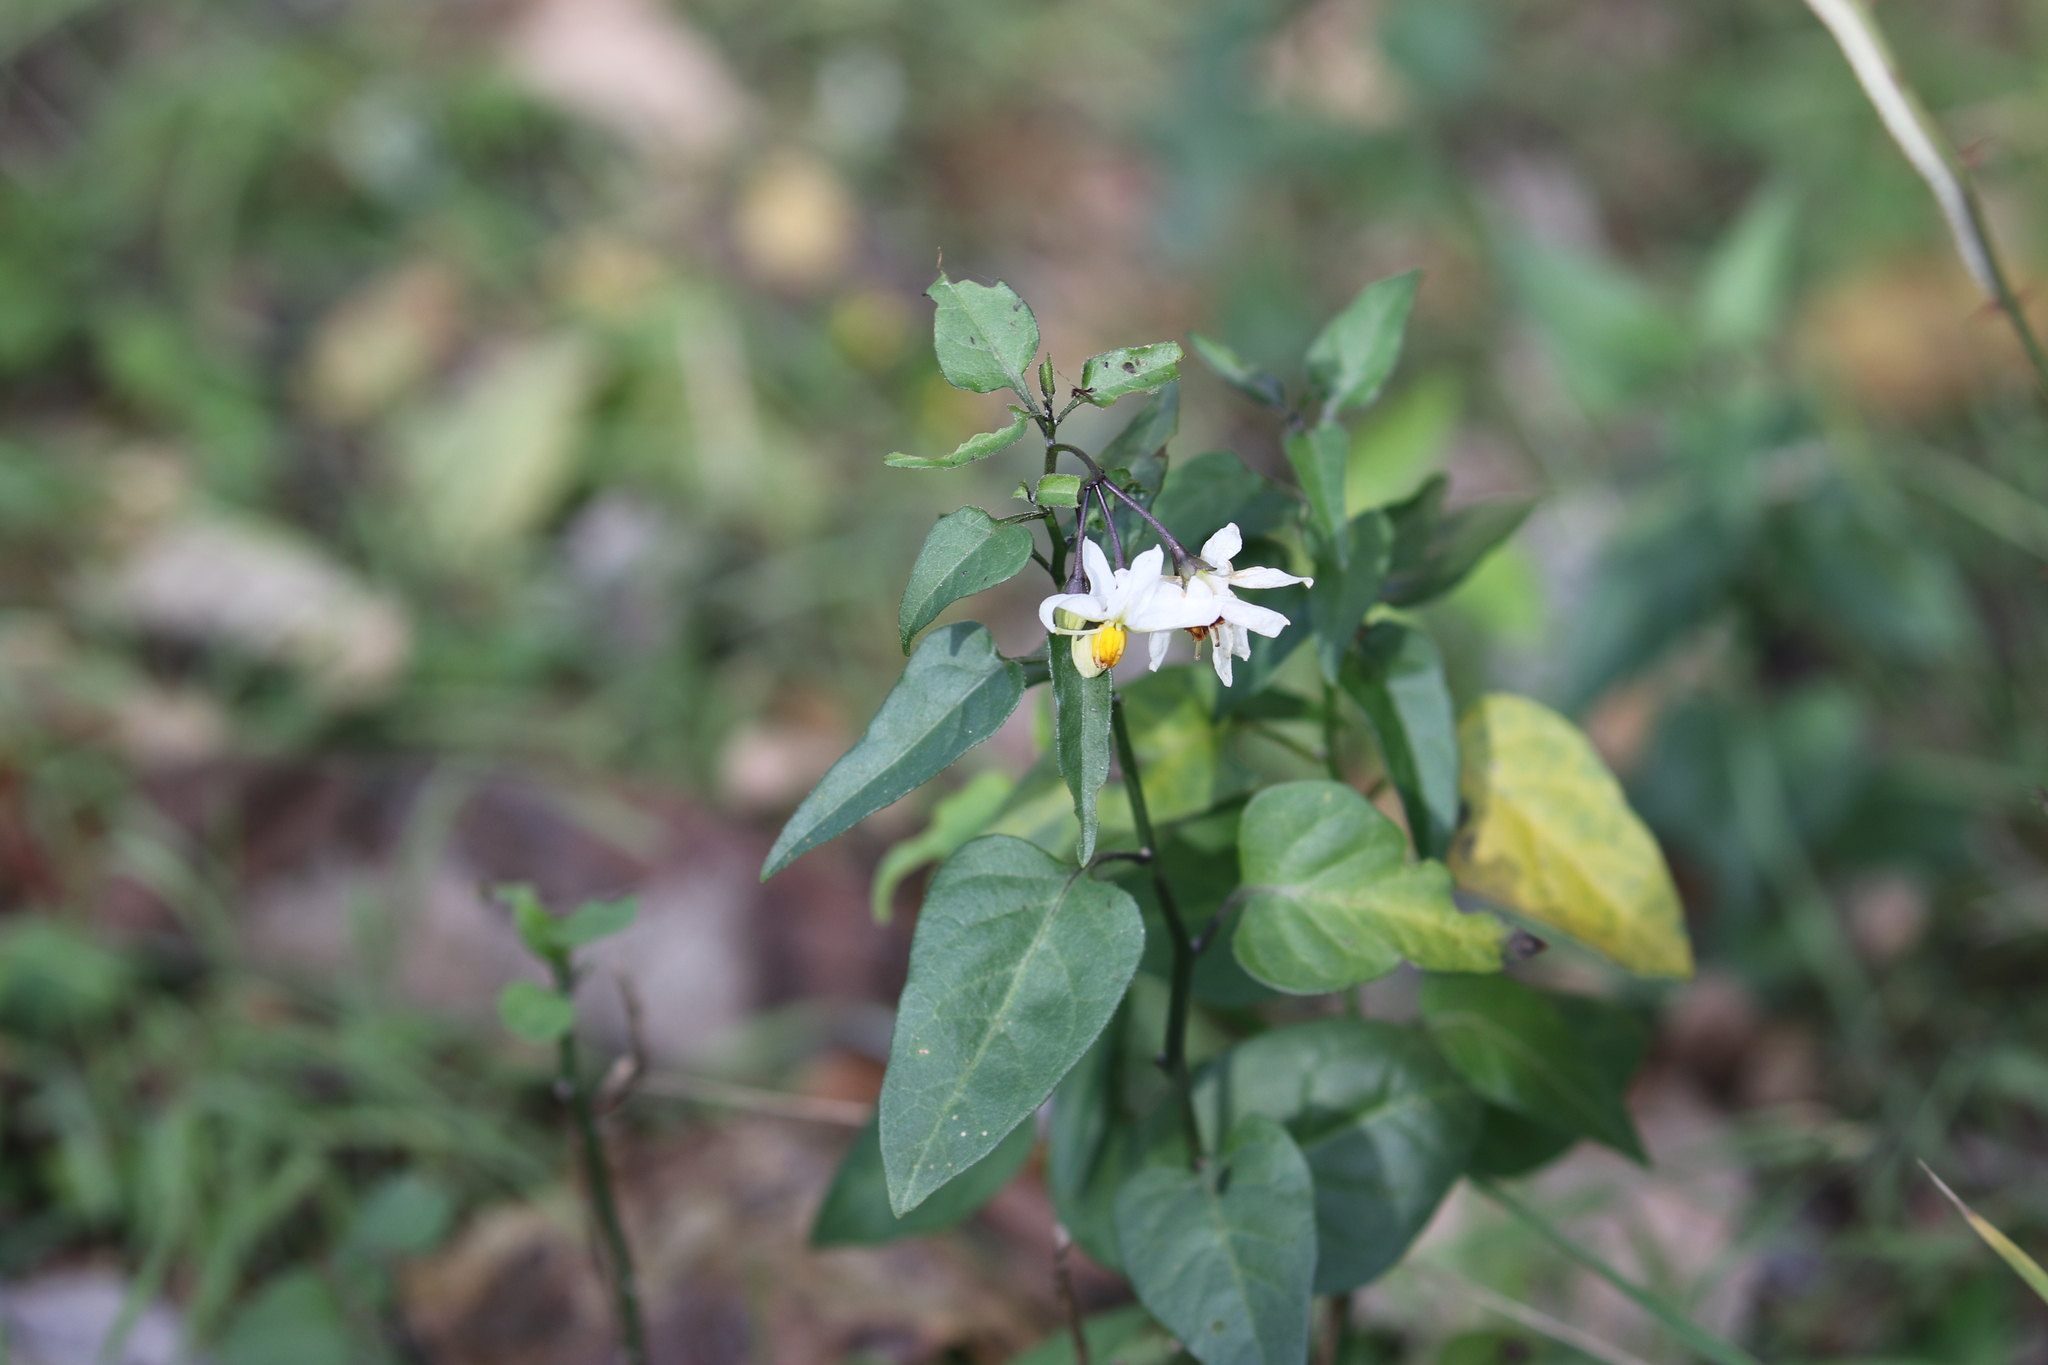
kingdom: Plantae
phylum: Tracheophyta
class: Magnoliopsida
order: Solanales
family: Solanaceae
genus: Solanum
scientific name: Solanum triquetrum
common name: Texas nightshade
